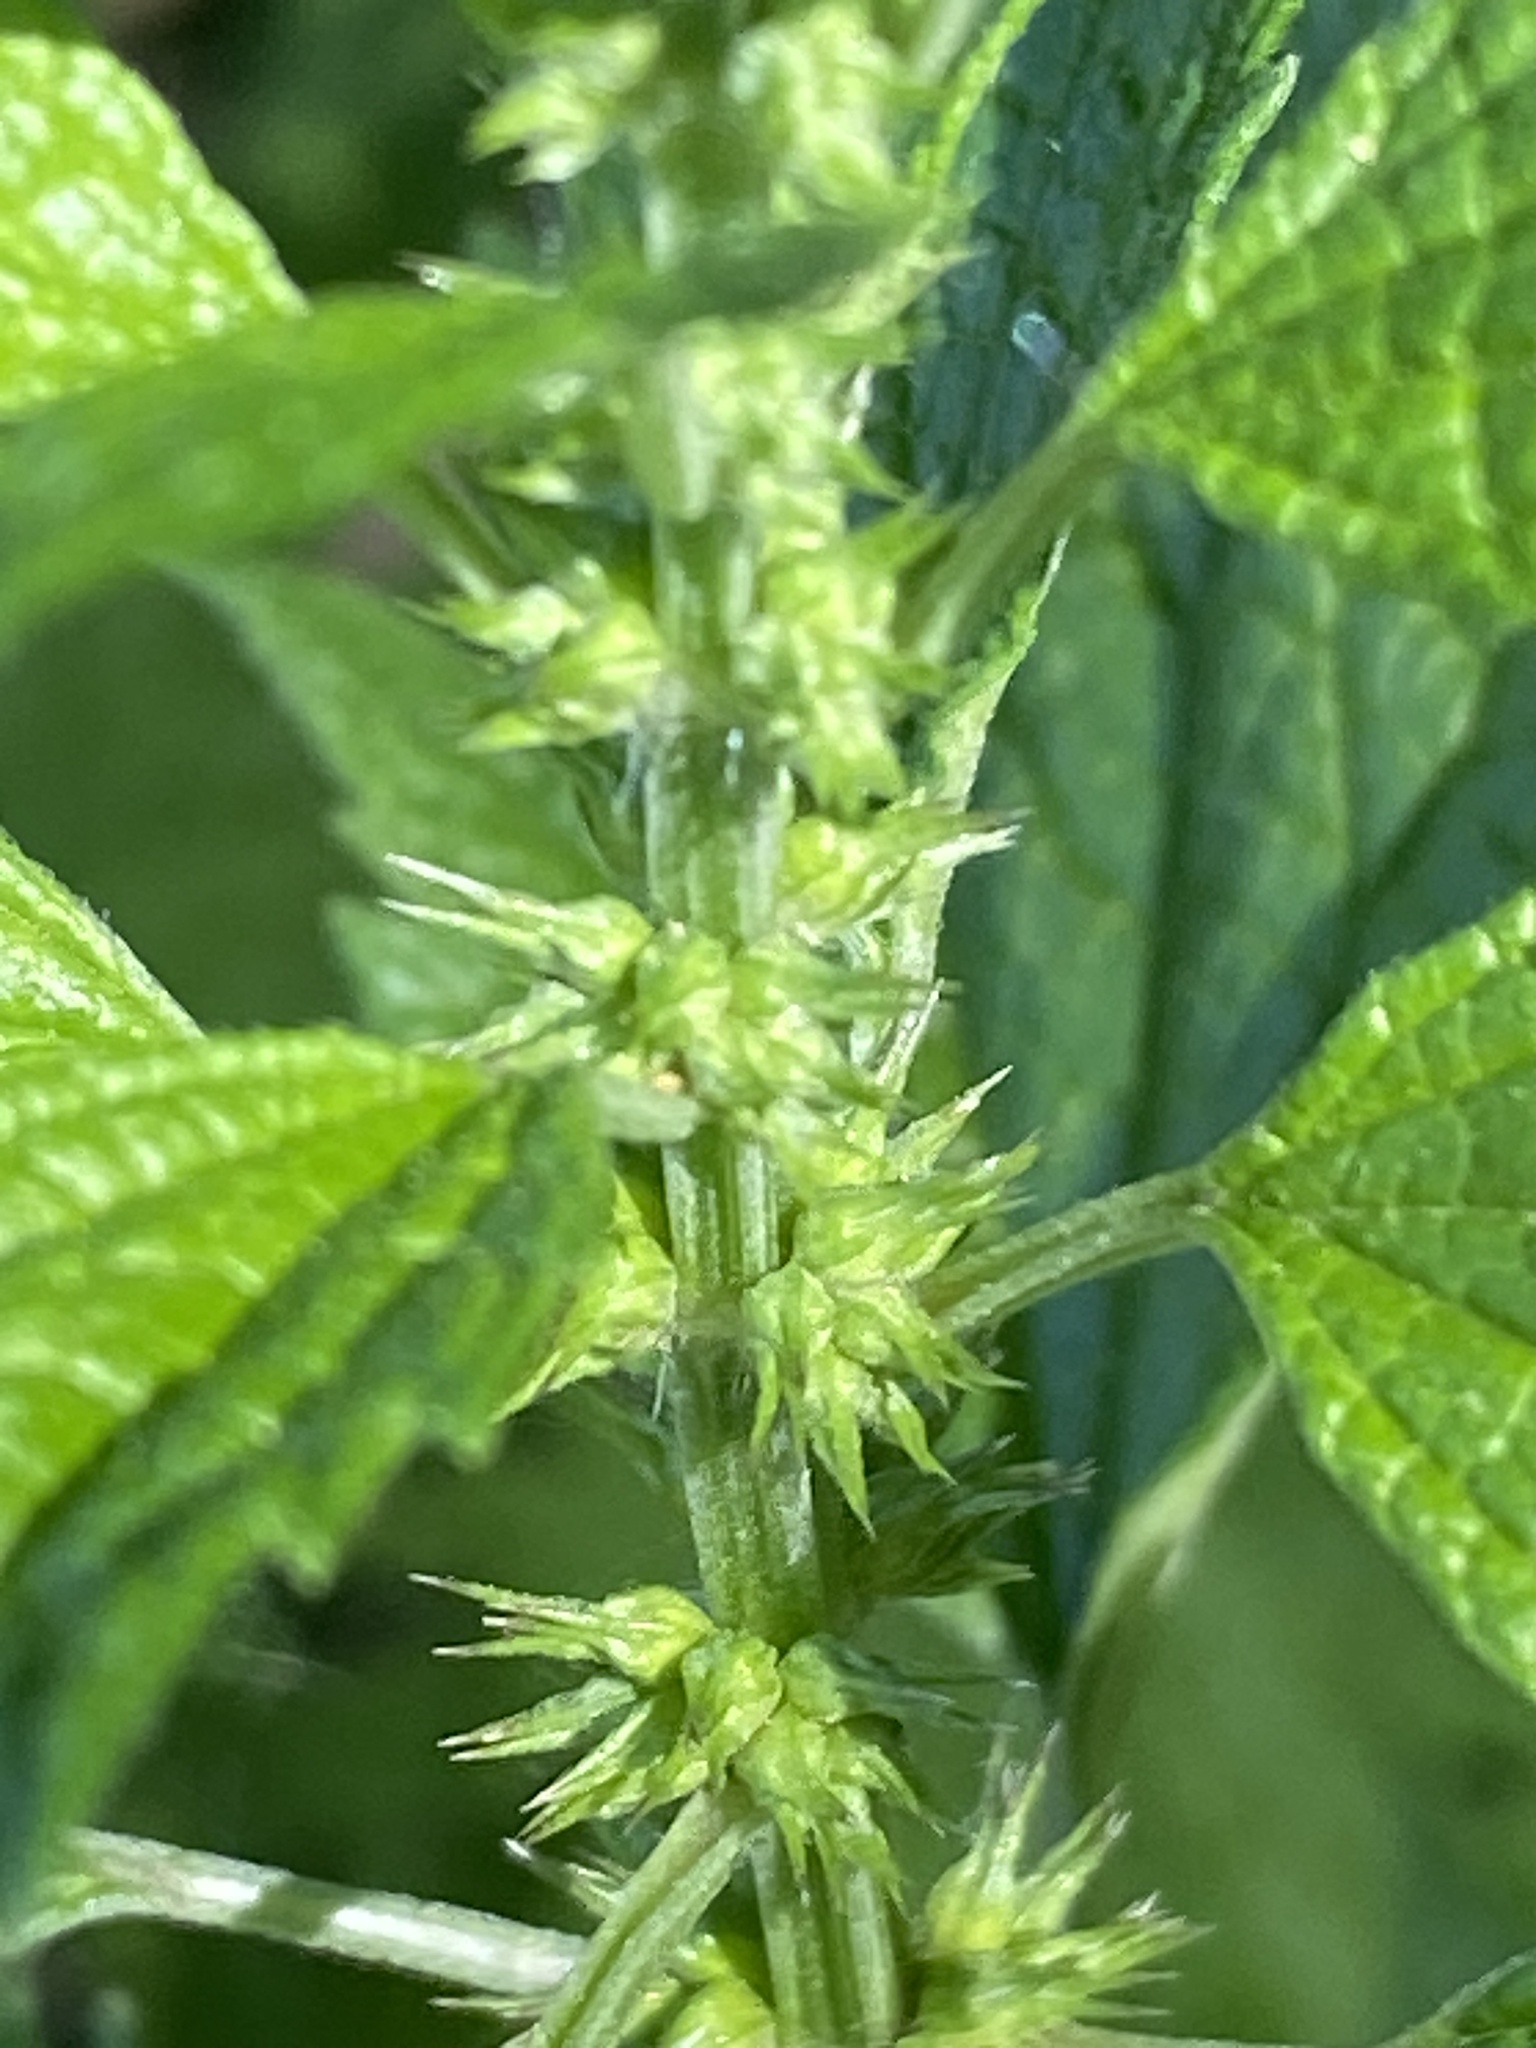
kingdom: Plantae
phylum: Tracheophyta
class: Magnoliopsida
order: Lamiales
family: Lamiaceae
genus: Leonurus
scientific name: Leonurus cardiaca
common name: Motherwort
